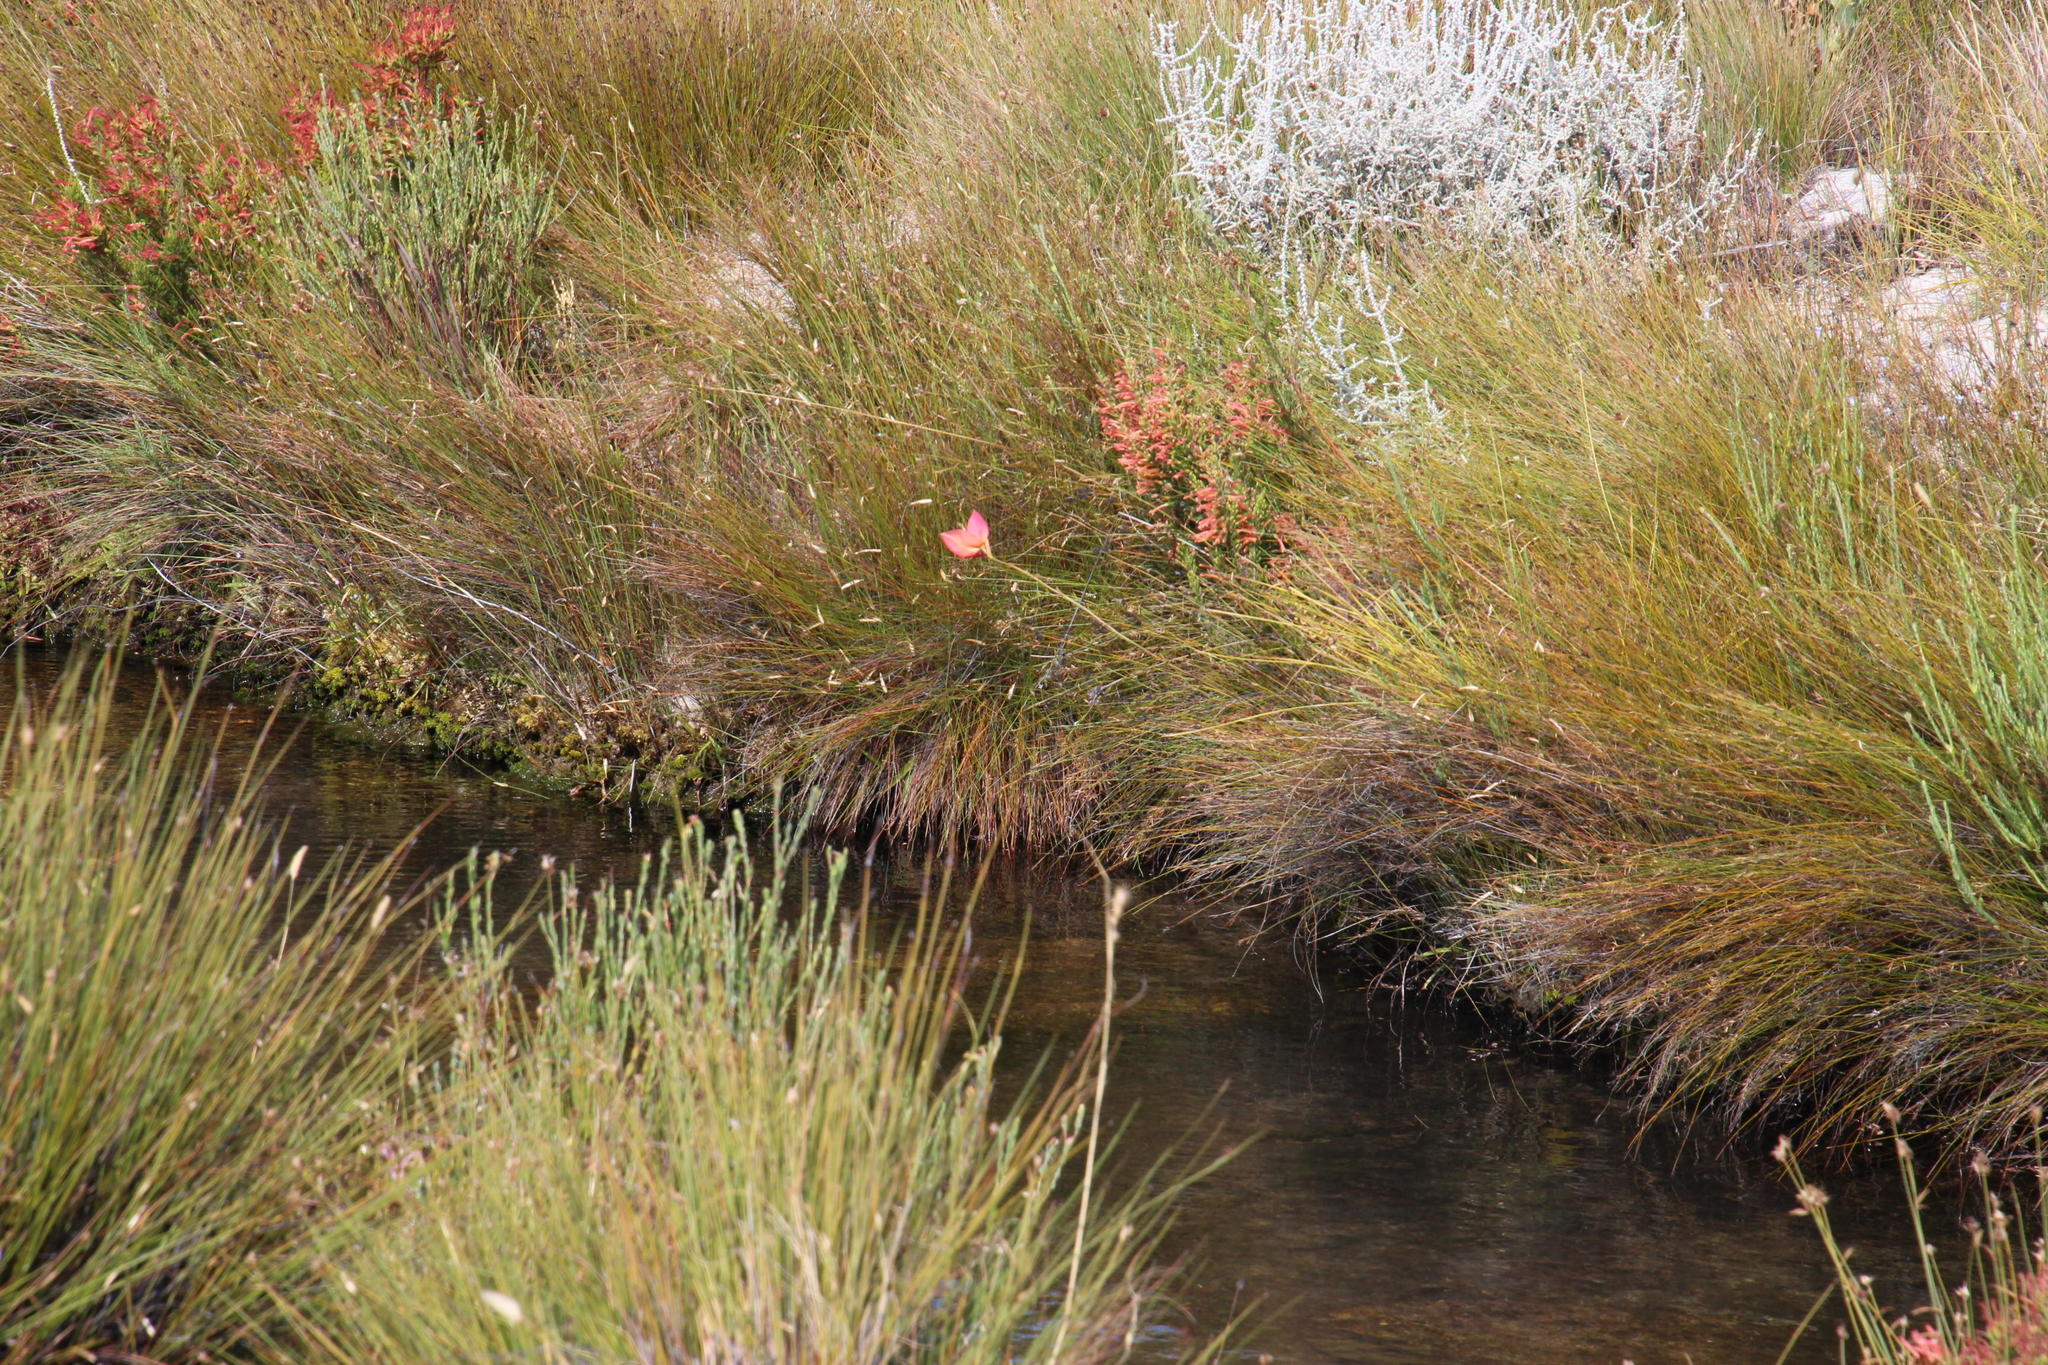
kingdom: Plantae
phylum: Tracheophyta
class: Liliopsida
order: Asparagales
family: Orchidaceae
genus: Disa
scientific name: Disa uniflora
